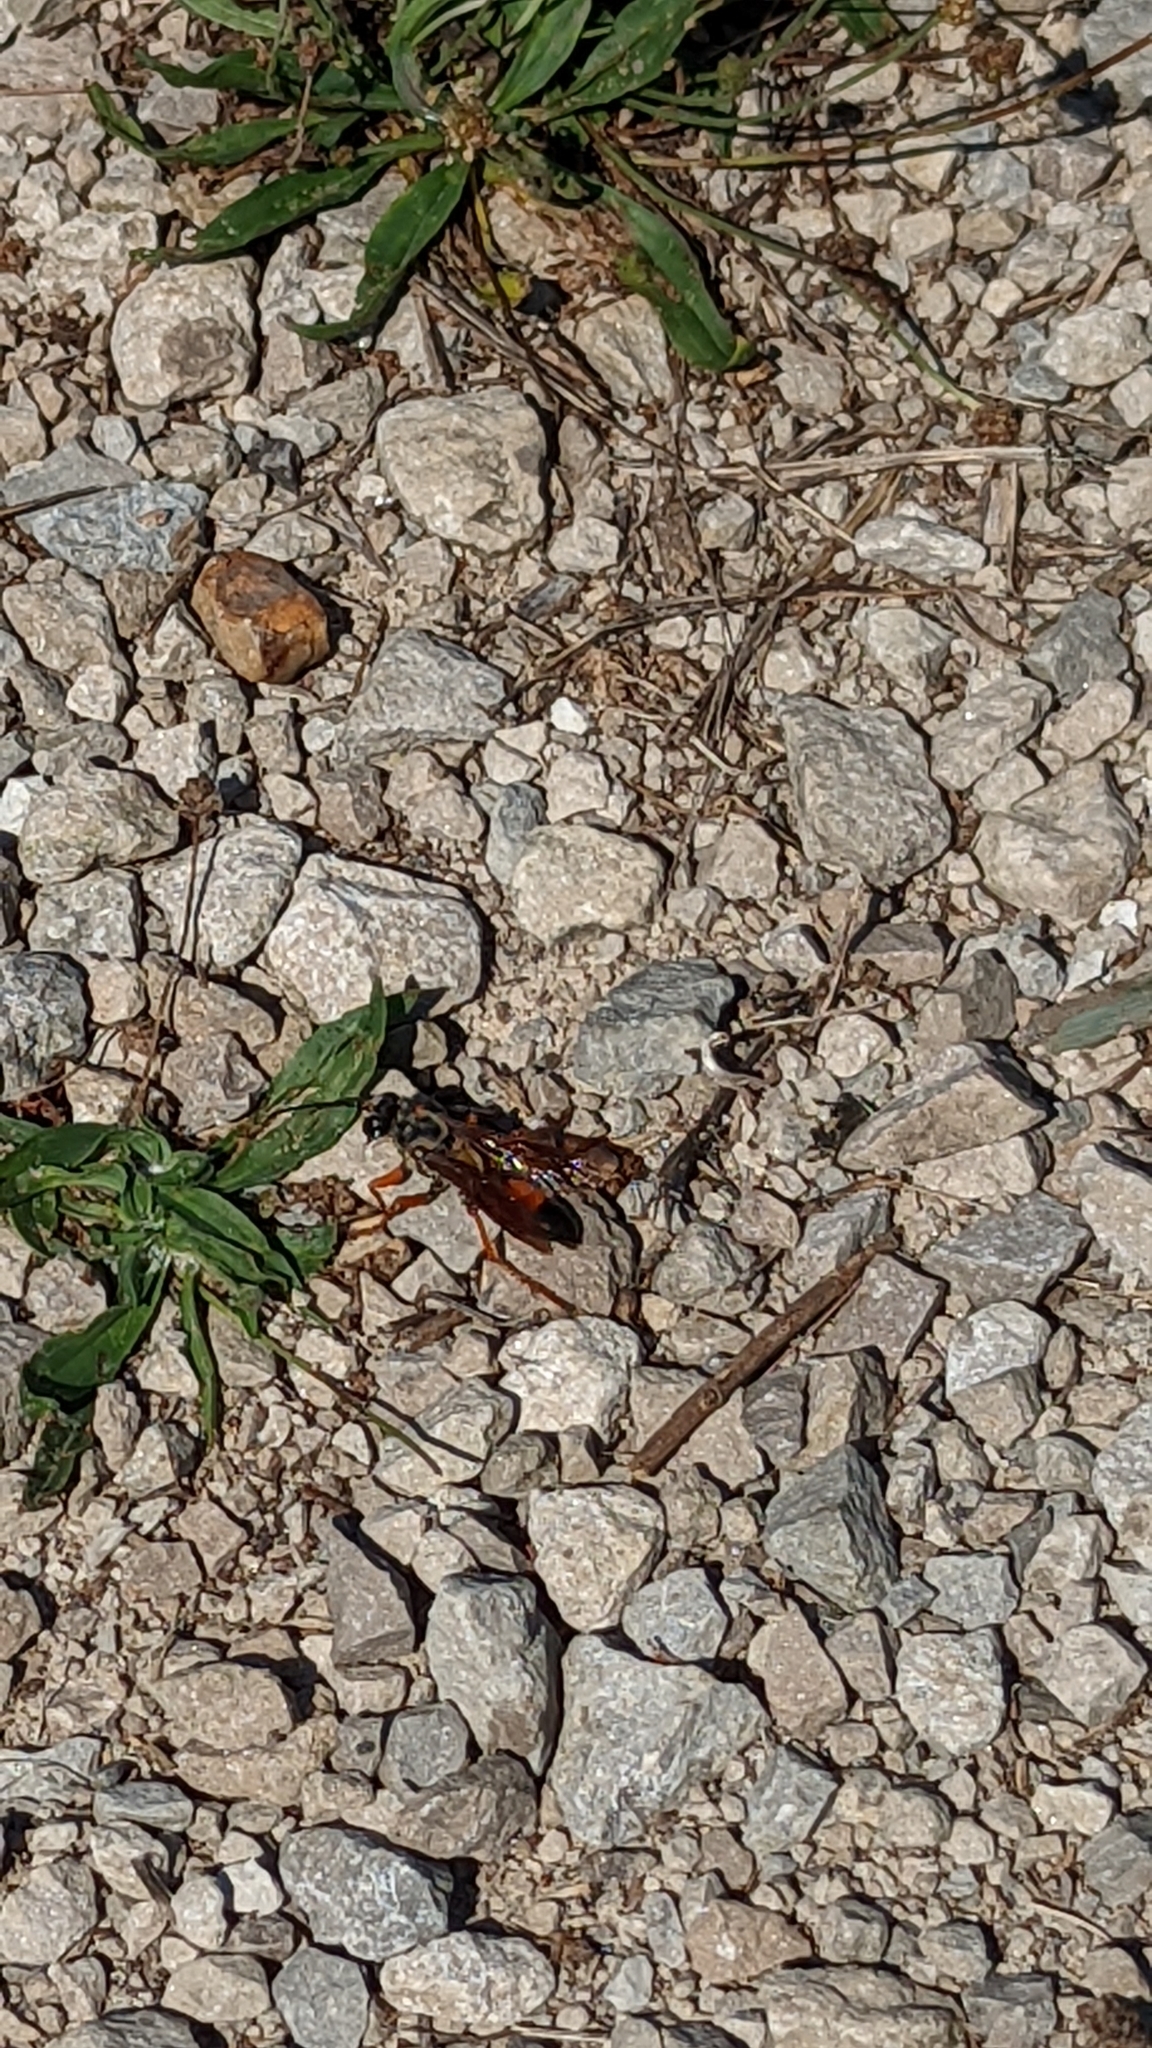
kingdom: Animalia
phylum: Arthropoda
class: Insecta
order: Hymenoptera
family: Sphecidae
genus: Sphex
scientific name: Sphex ichneumoneus
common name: Great golden digger wasp
